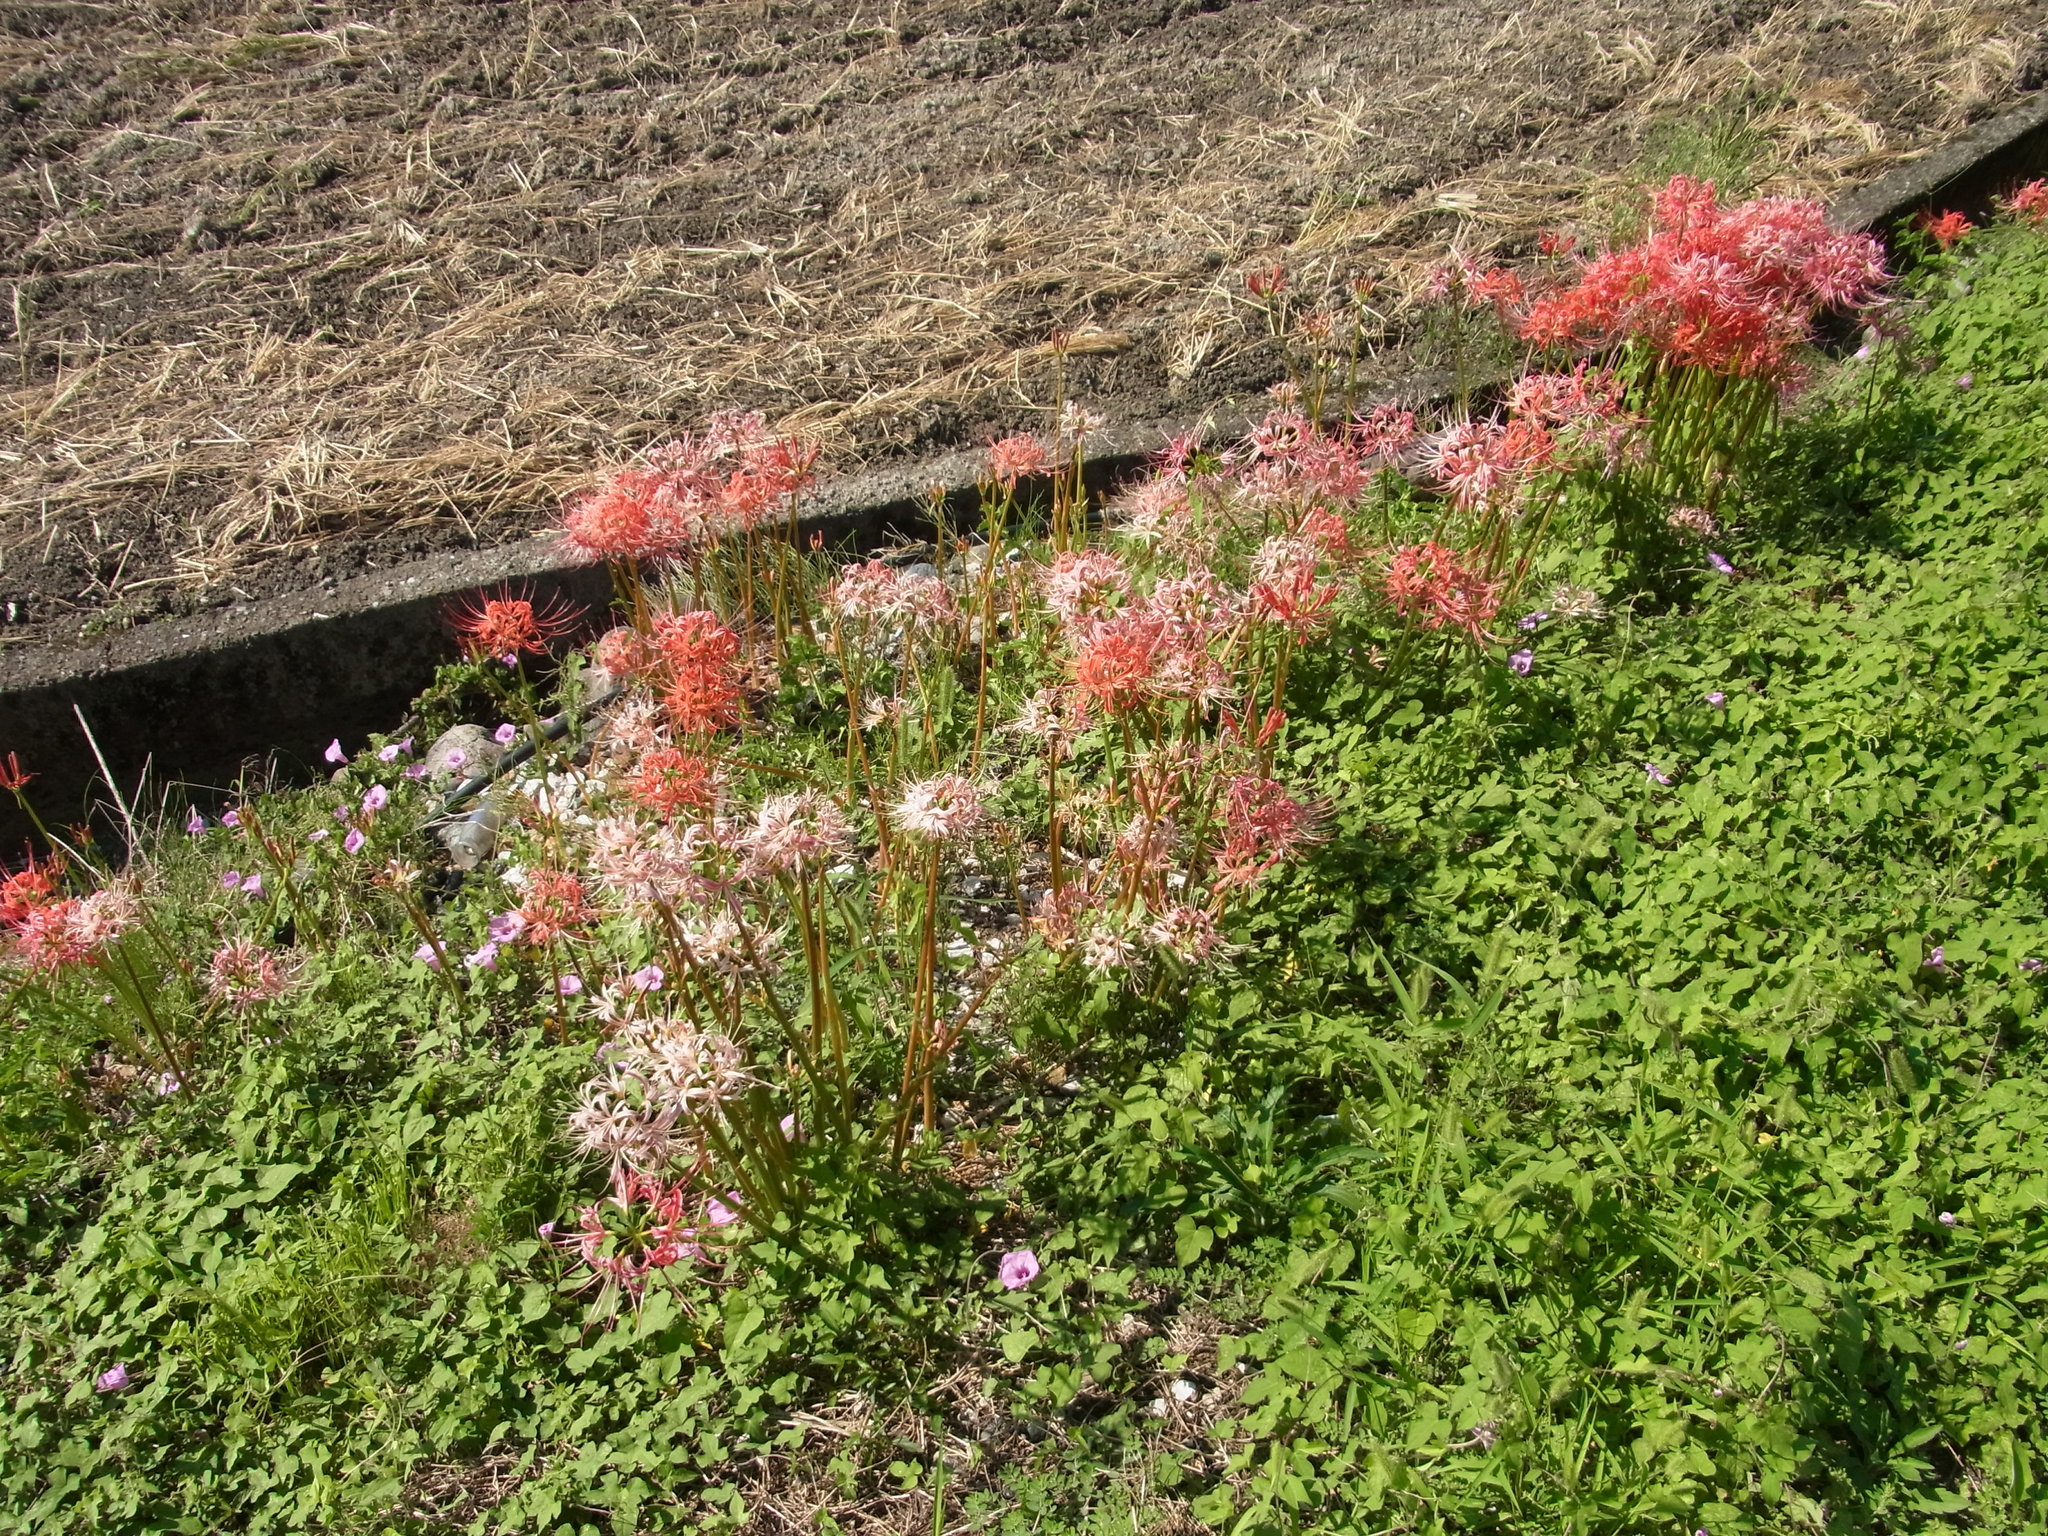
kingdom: Plantae
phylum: Tracheophyta
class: Liliopsida
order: Asparagales
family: Amaryllidaceae
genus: Lycoris
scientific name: Lycoris radiata
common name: Red spider lily
